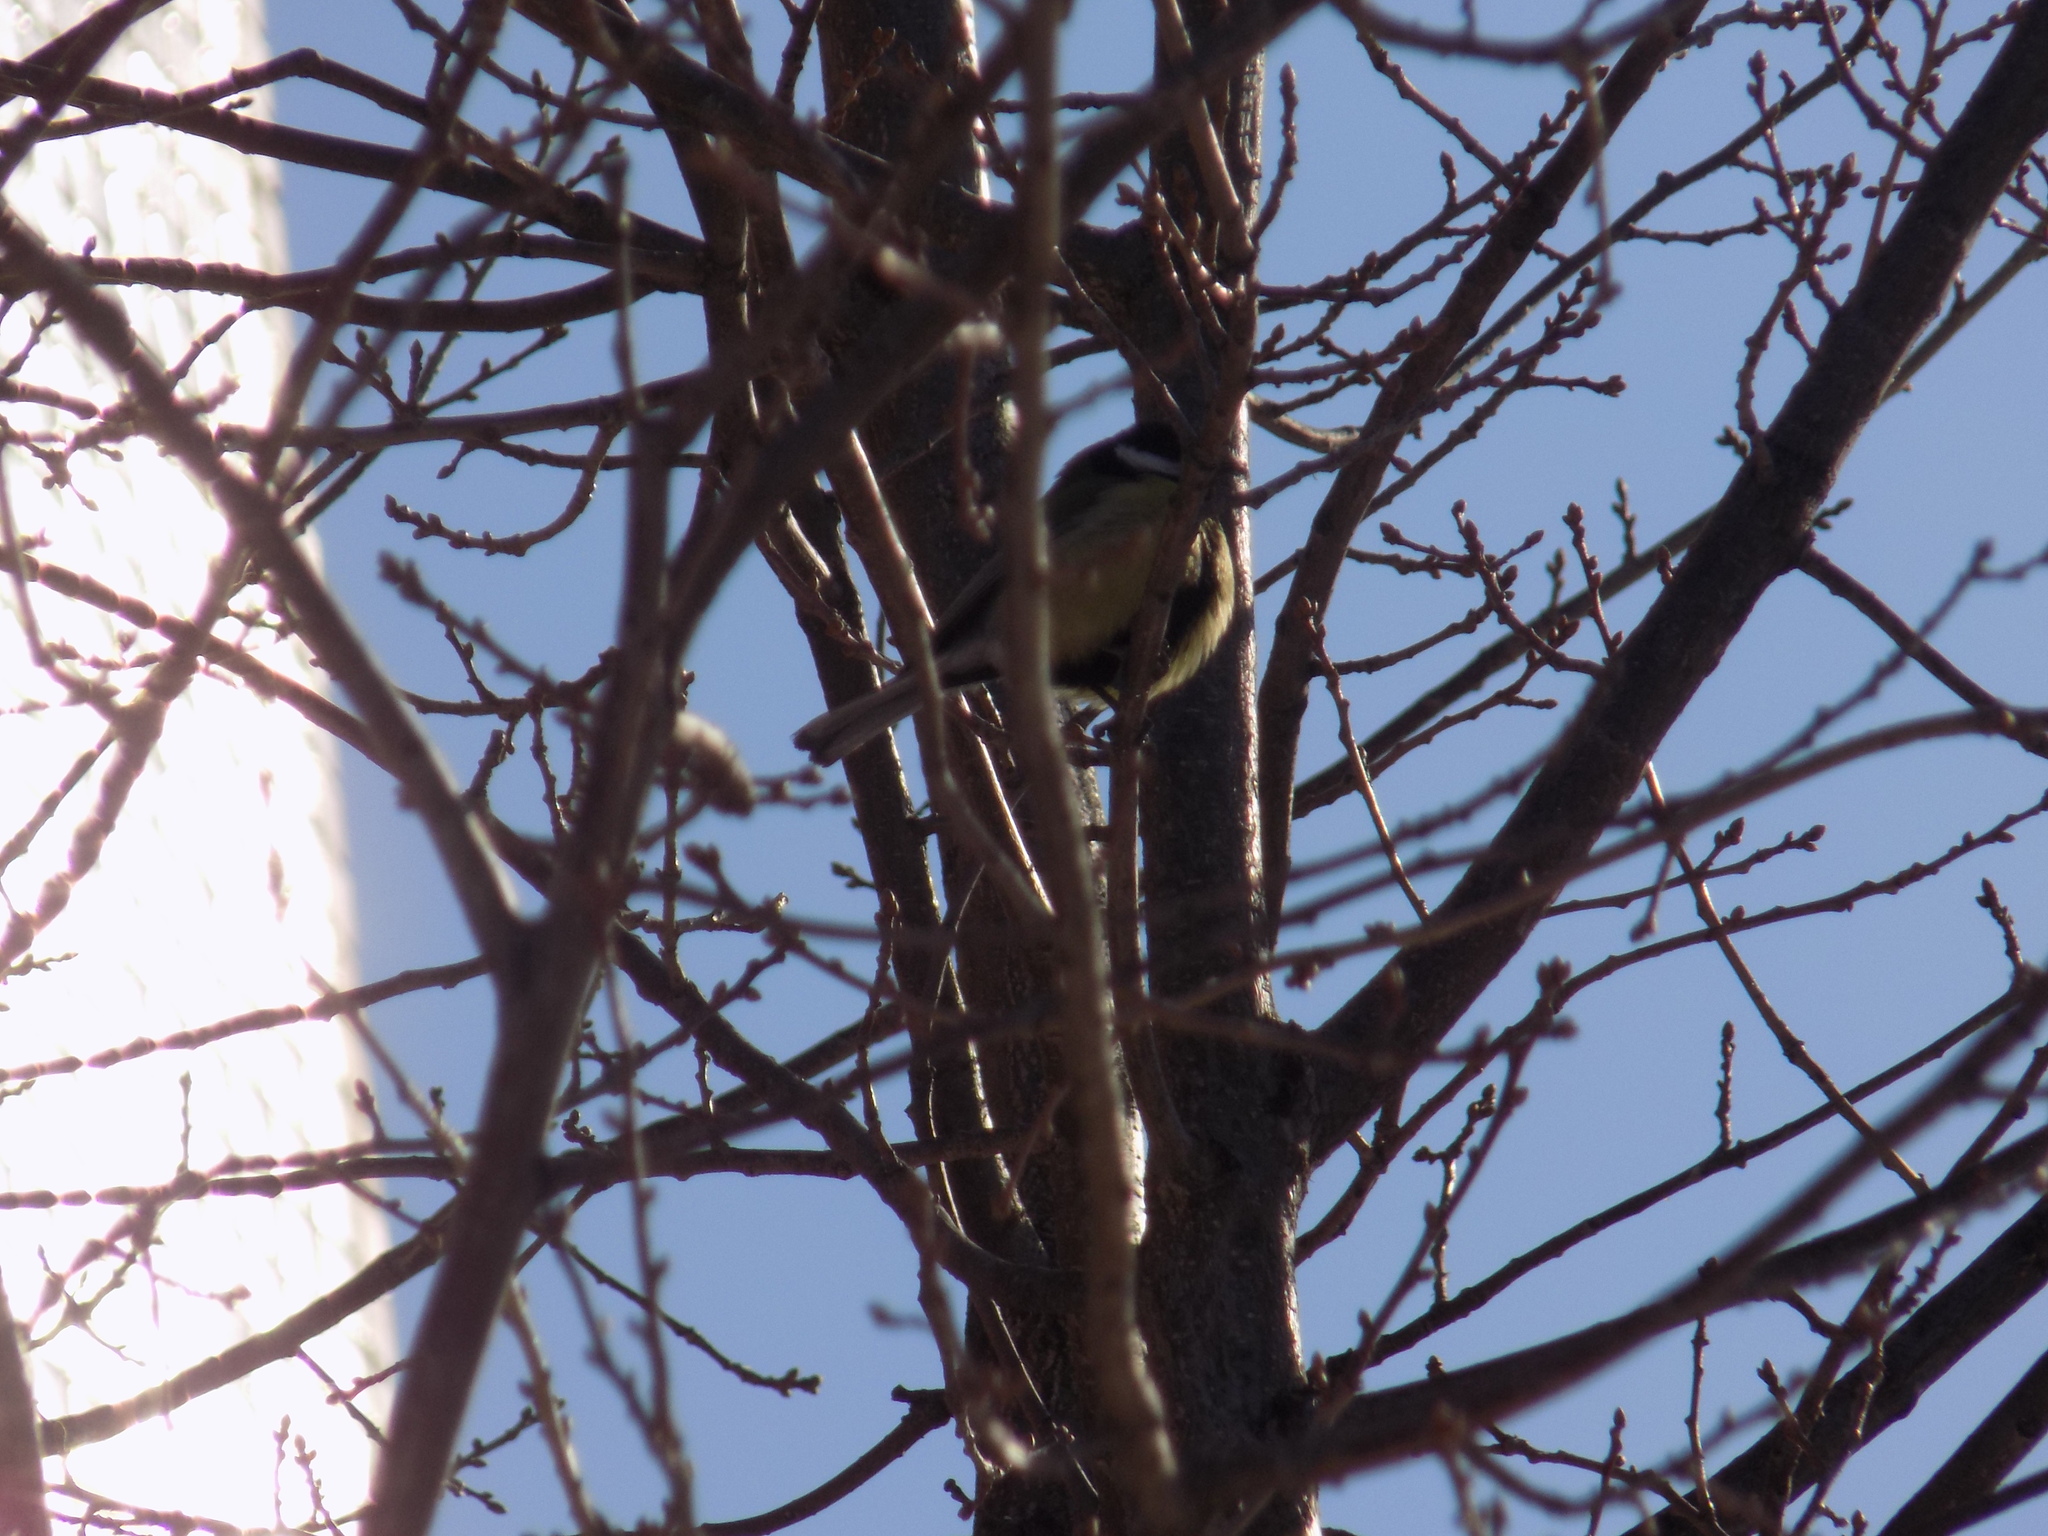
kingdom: Animalia
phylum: Chordata
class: Aves
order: Passeriformes
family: Paridae
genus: Parus
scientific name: Parus major
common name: Great tit
